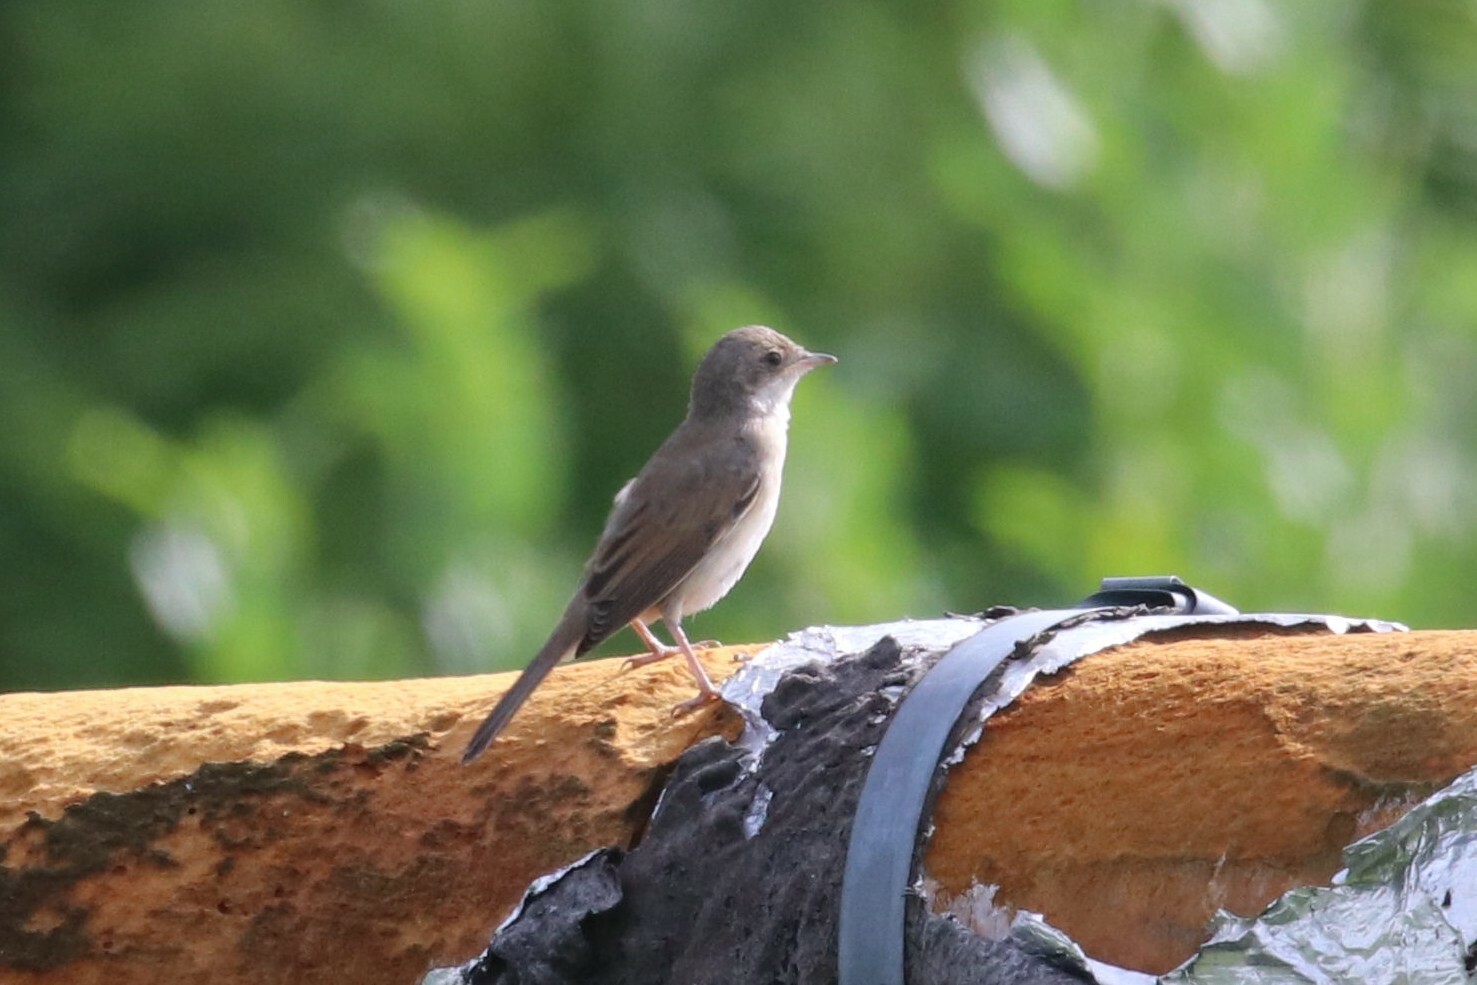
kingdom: Animalia
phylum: Chordata
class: Aves
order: Passeriformes
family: Sylviidae
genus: Sylvia
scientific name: Sylvia communis
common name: Common whitethroat
